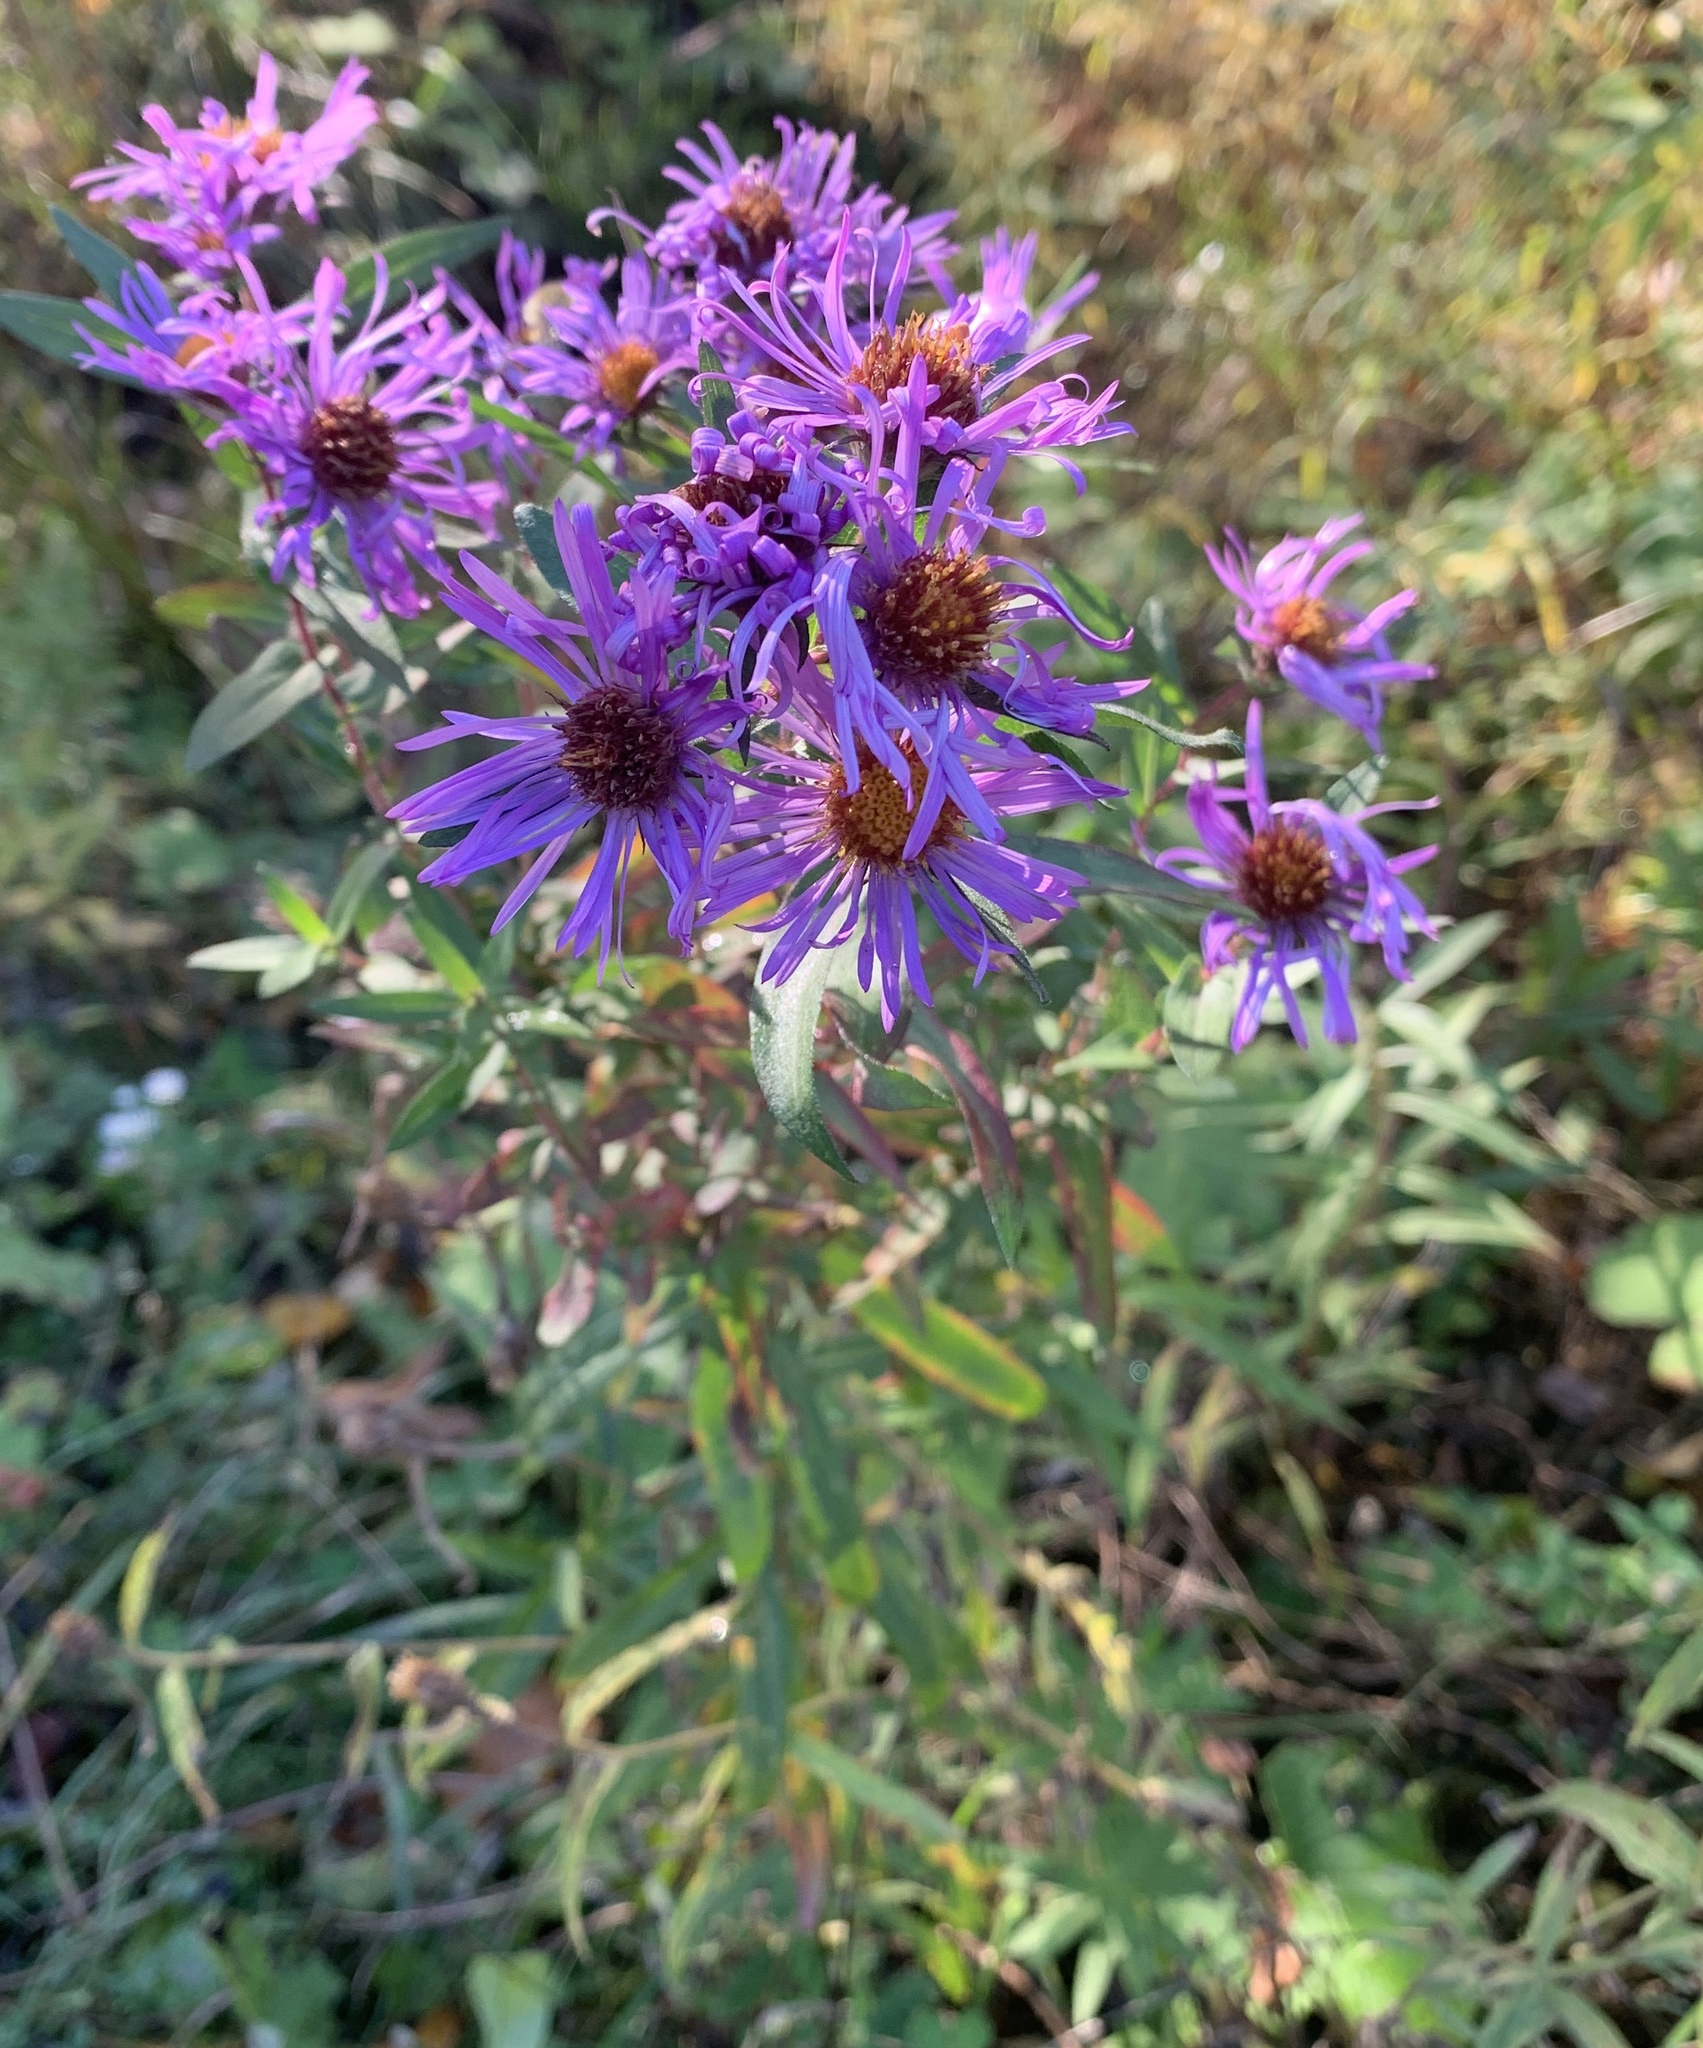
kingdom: Plantae
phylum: Tracheophyta
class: Magnoliopsida
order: Asterales
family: Asteraceae
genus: Symphyotrichum
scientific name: Symphyotrichum novae-angliae
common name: Michaelmas daisy
